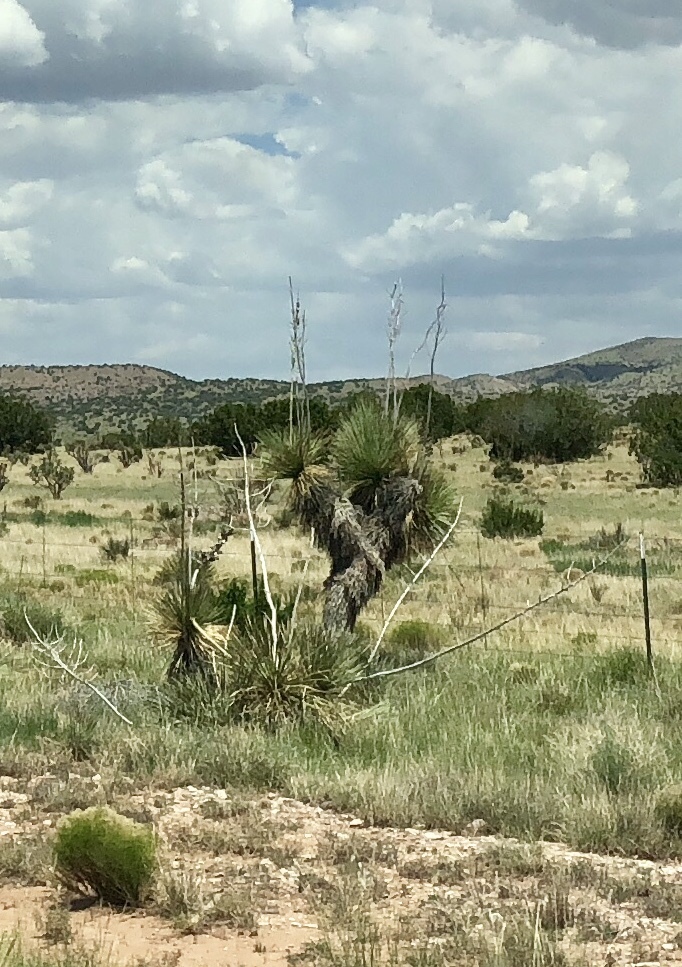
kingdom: Plantae
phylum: Tracheophyta
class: Liliopsida
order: Asparagales
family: Asparagaceae
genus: Yucca
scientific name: Yucca elata
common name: Palmella
